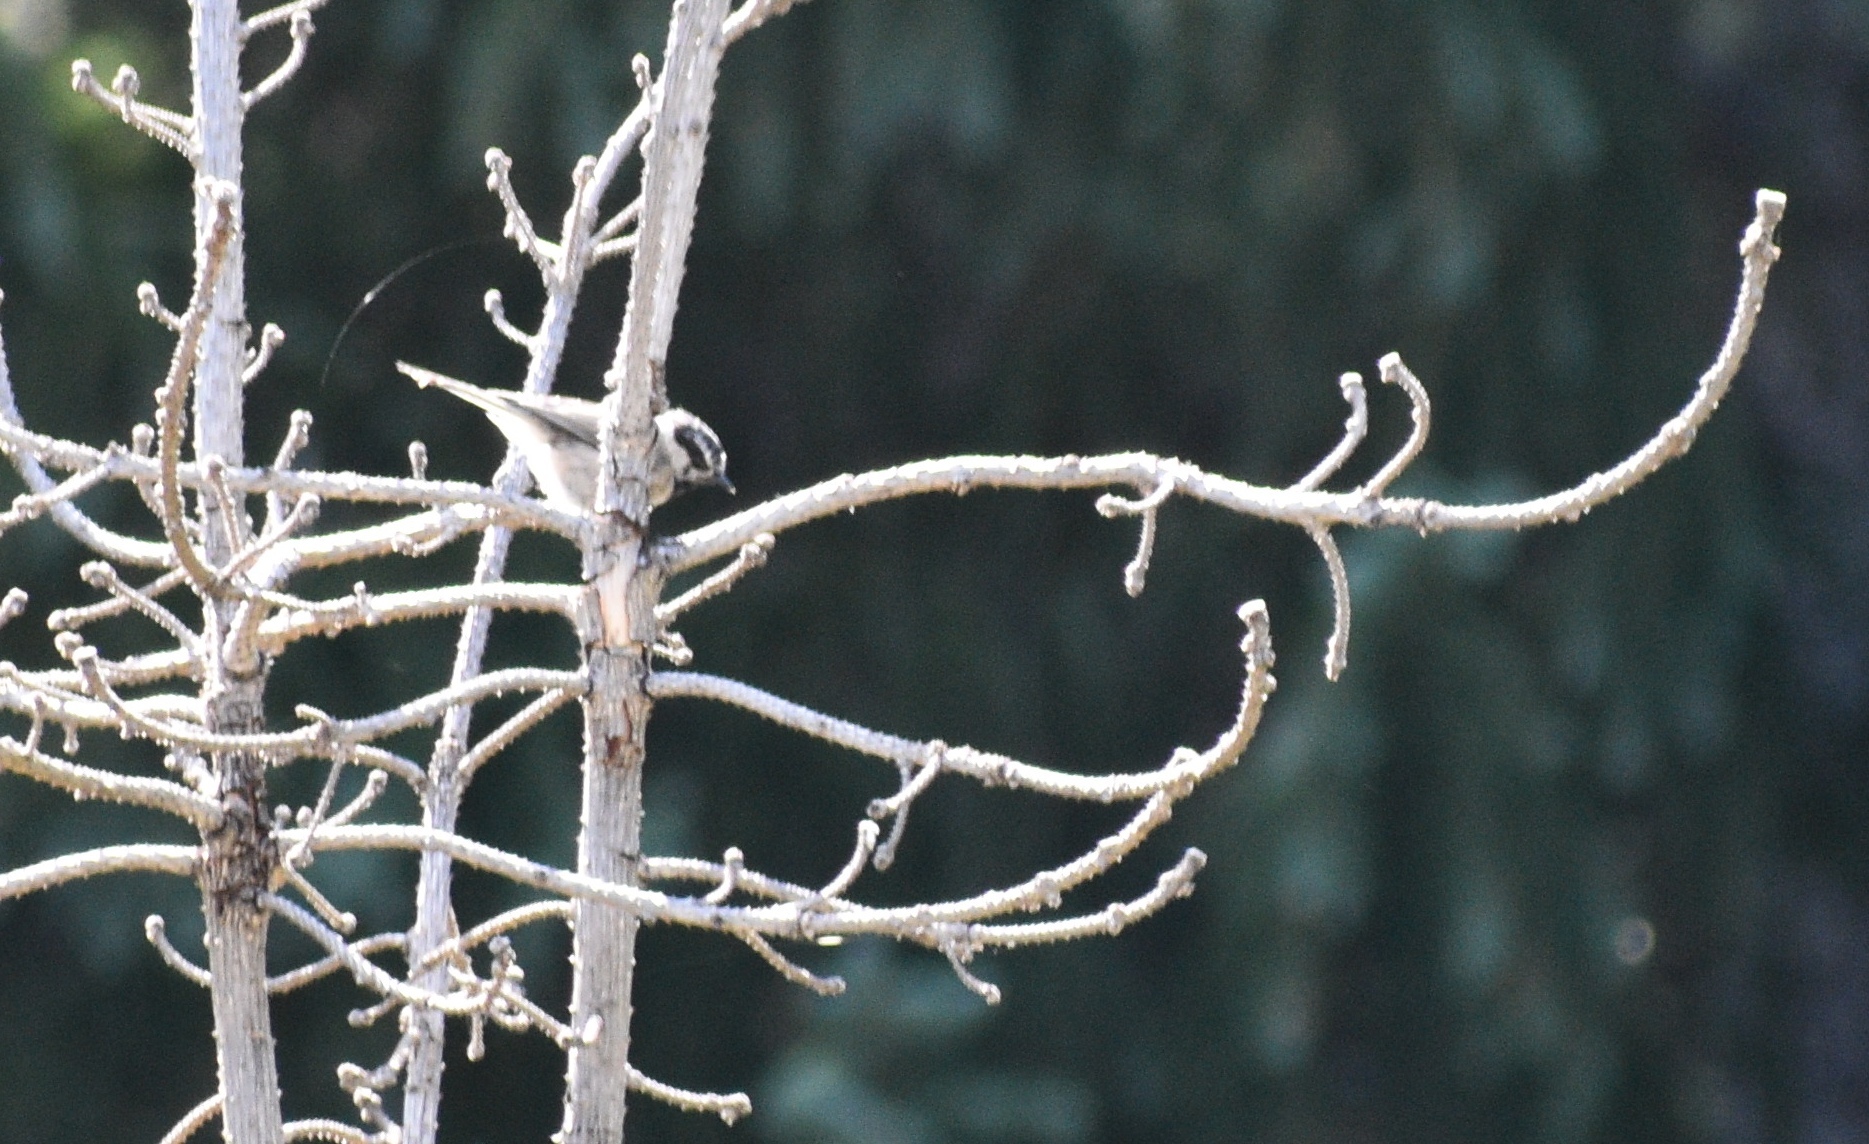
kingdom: Animalia
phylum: Chordata
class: Aves
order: Passeriformes
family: Paridae
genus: Poecile
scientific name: Poecile gambeli
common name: Mountain chickadee
